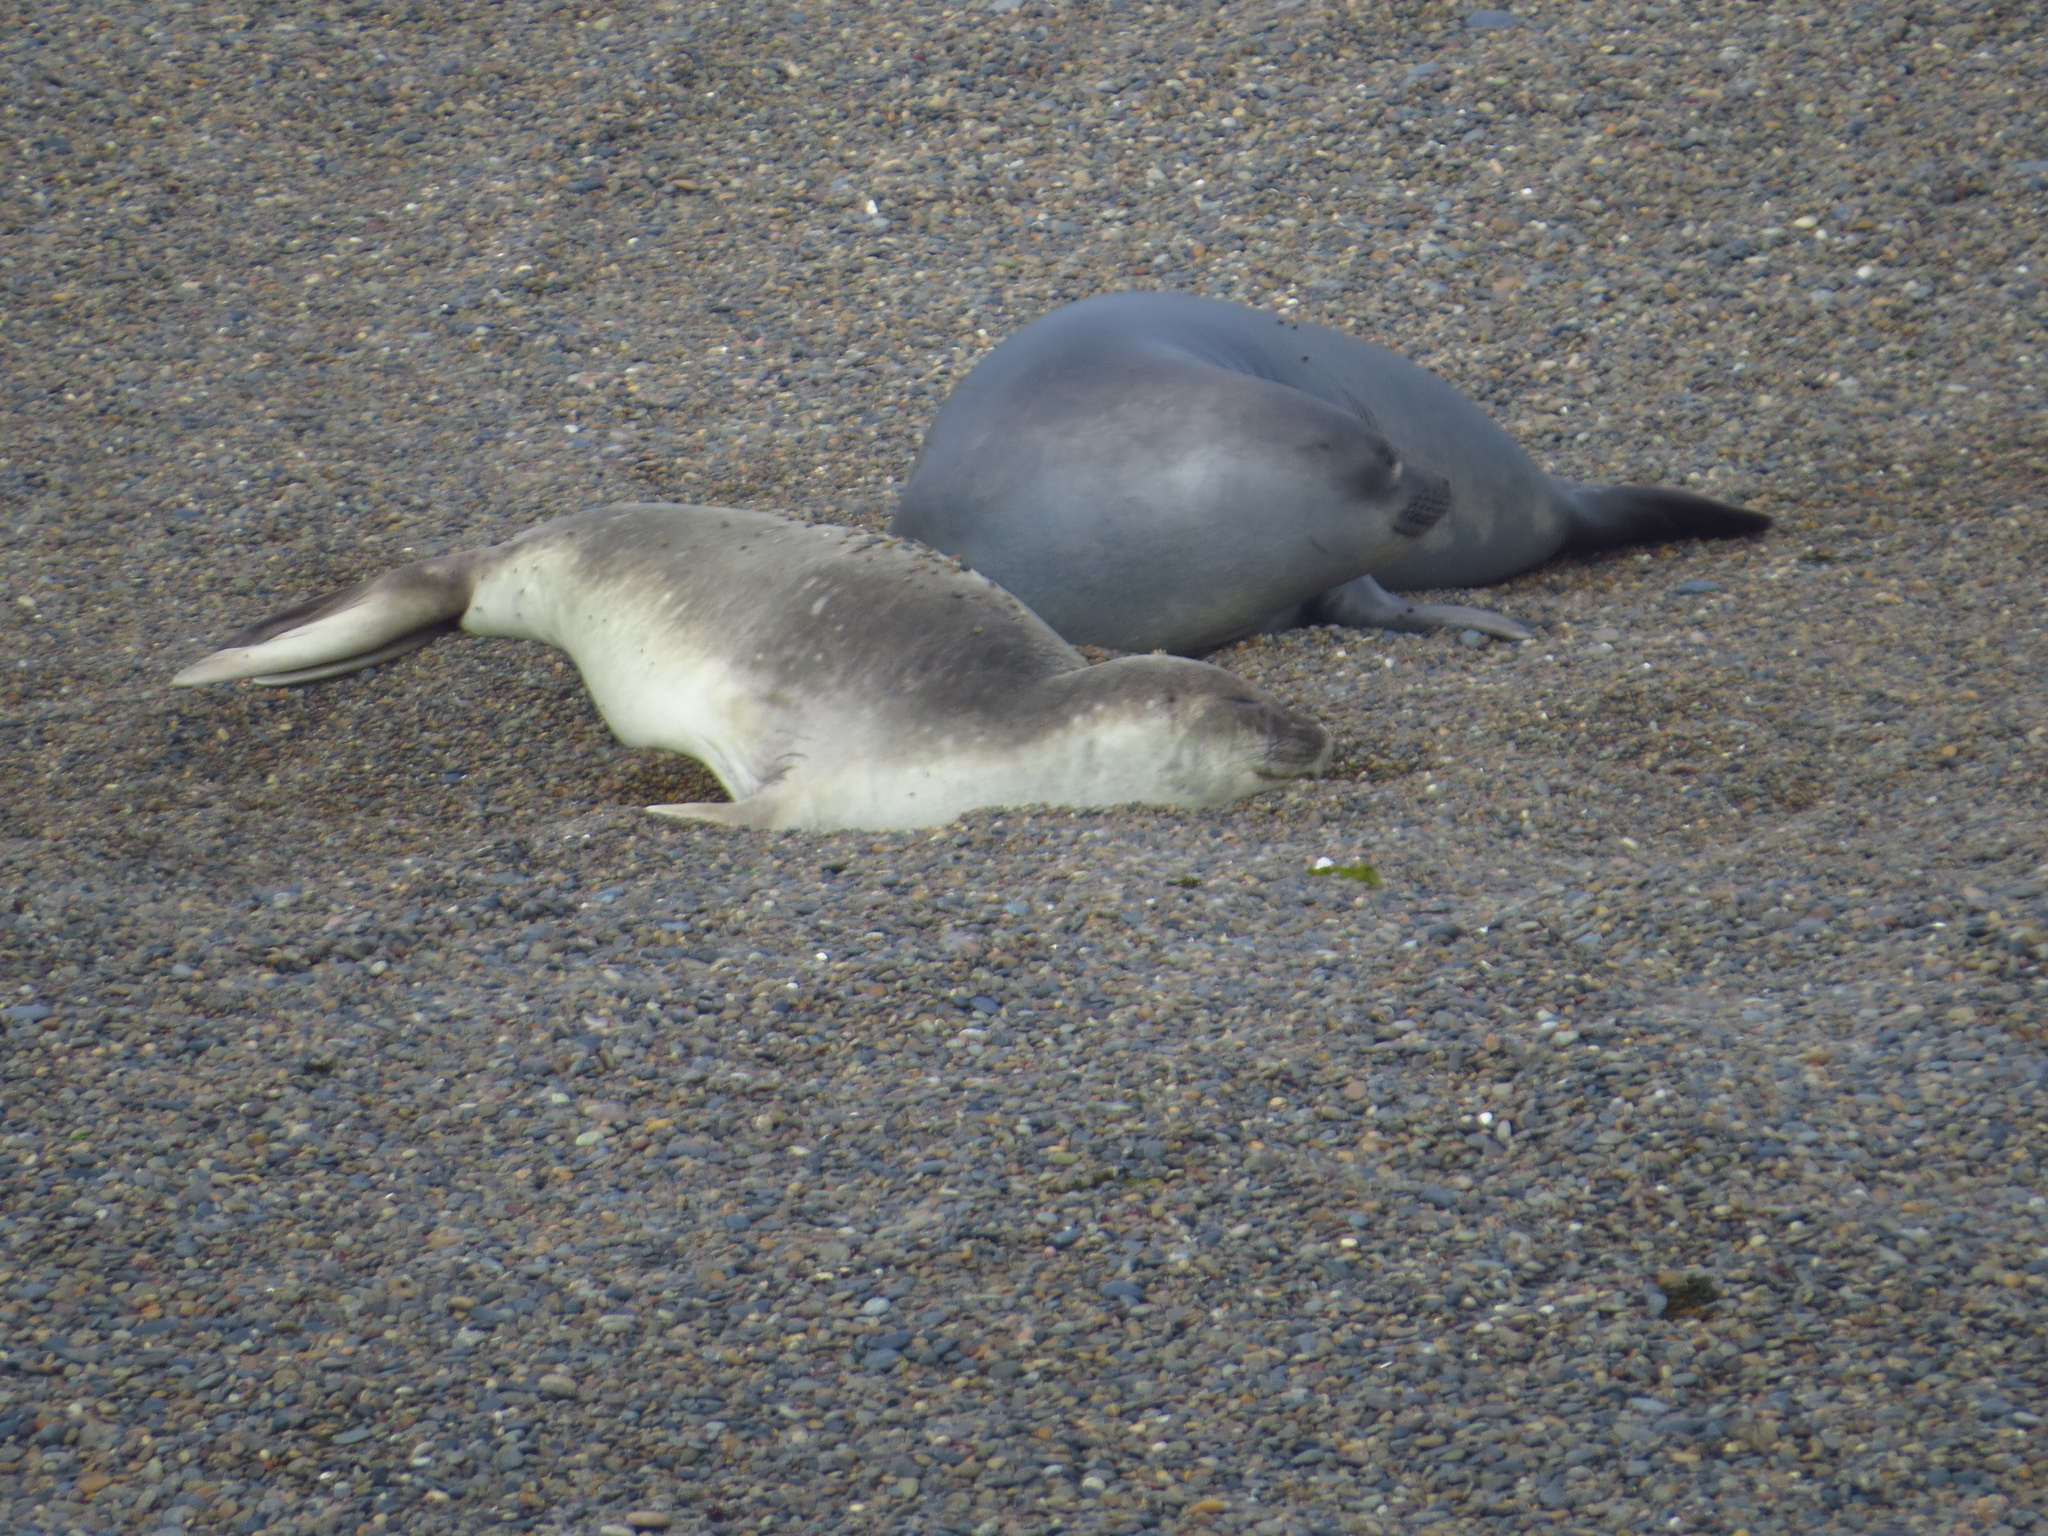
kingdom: Animalia
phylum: Chordata
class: Mammalia
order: Carnivora
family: Phocidae
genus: Mirounga
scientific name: Mirounga leonina
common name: Southern elephant seal
